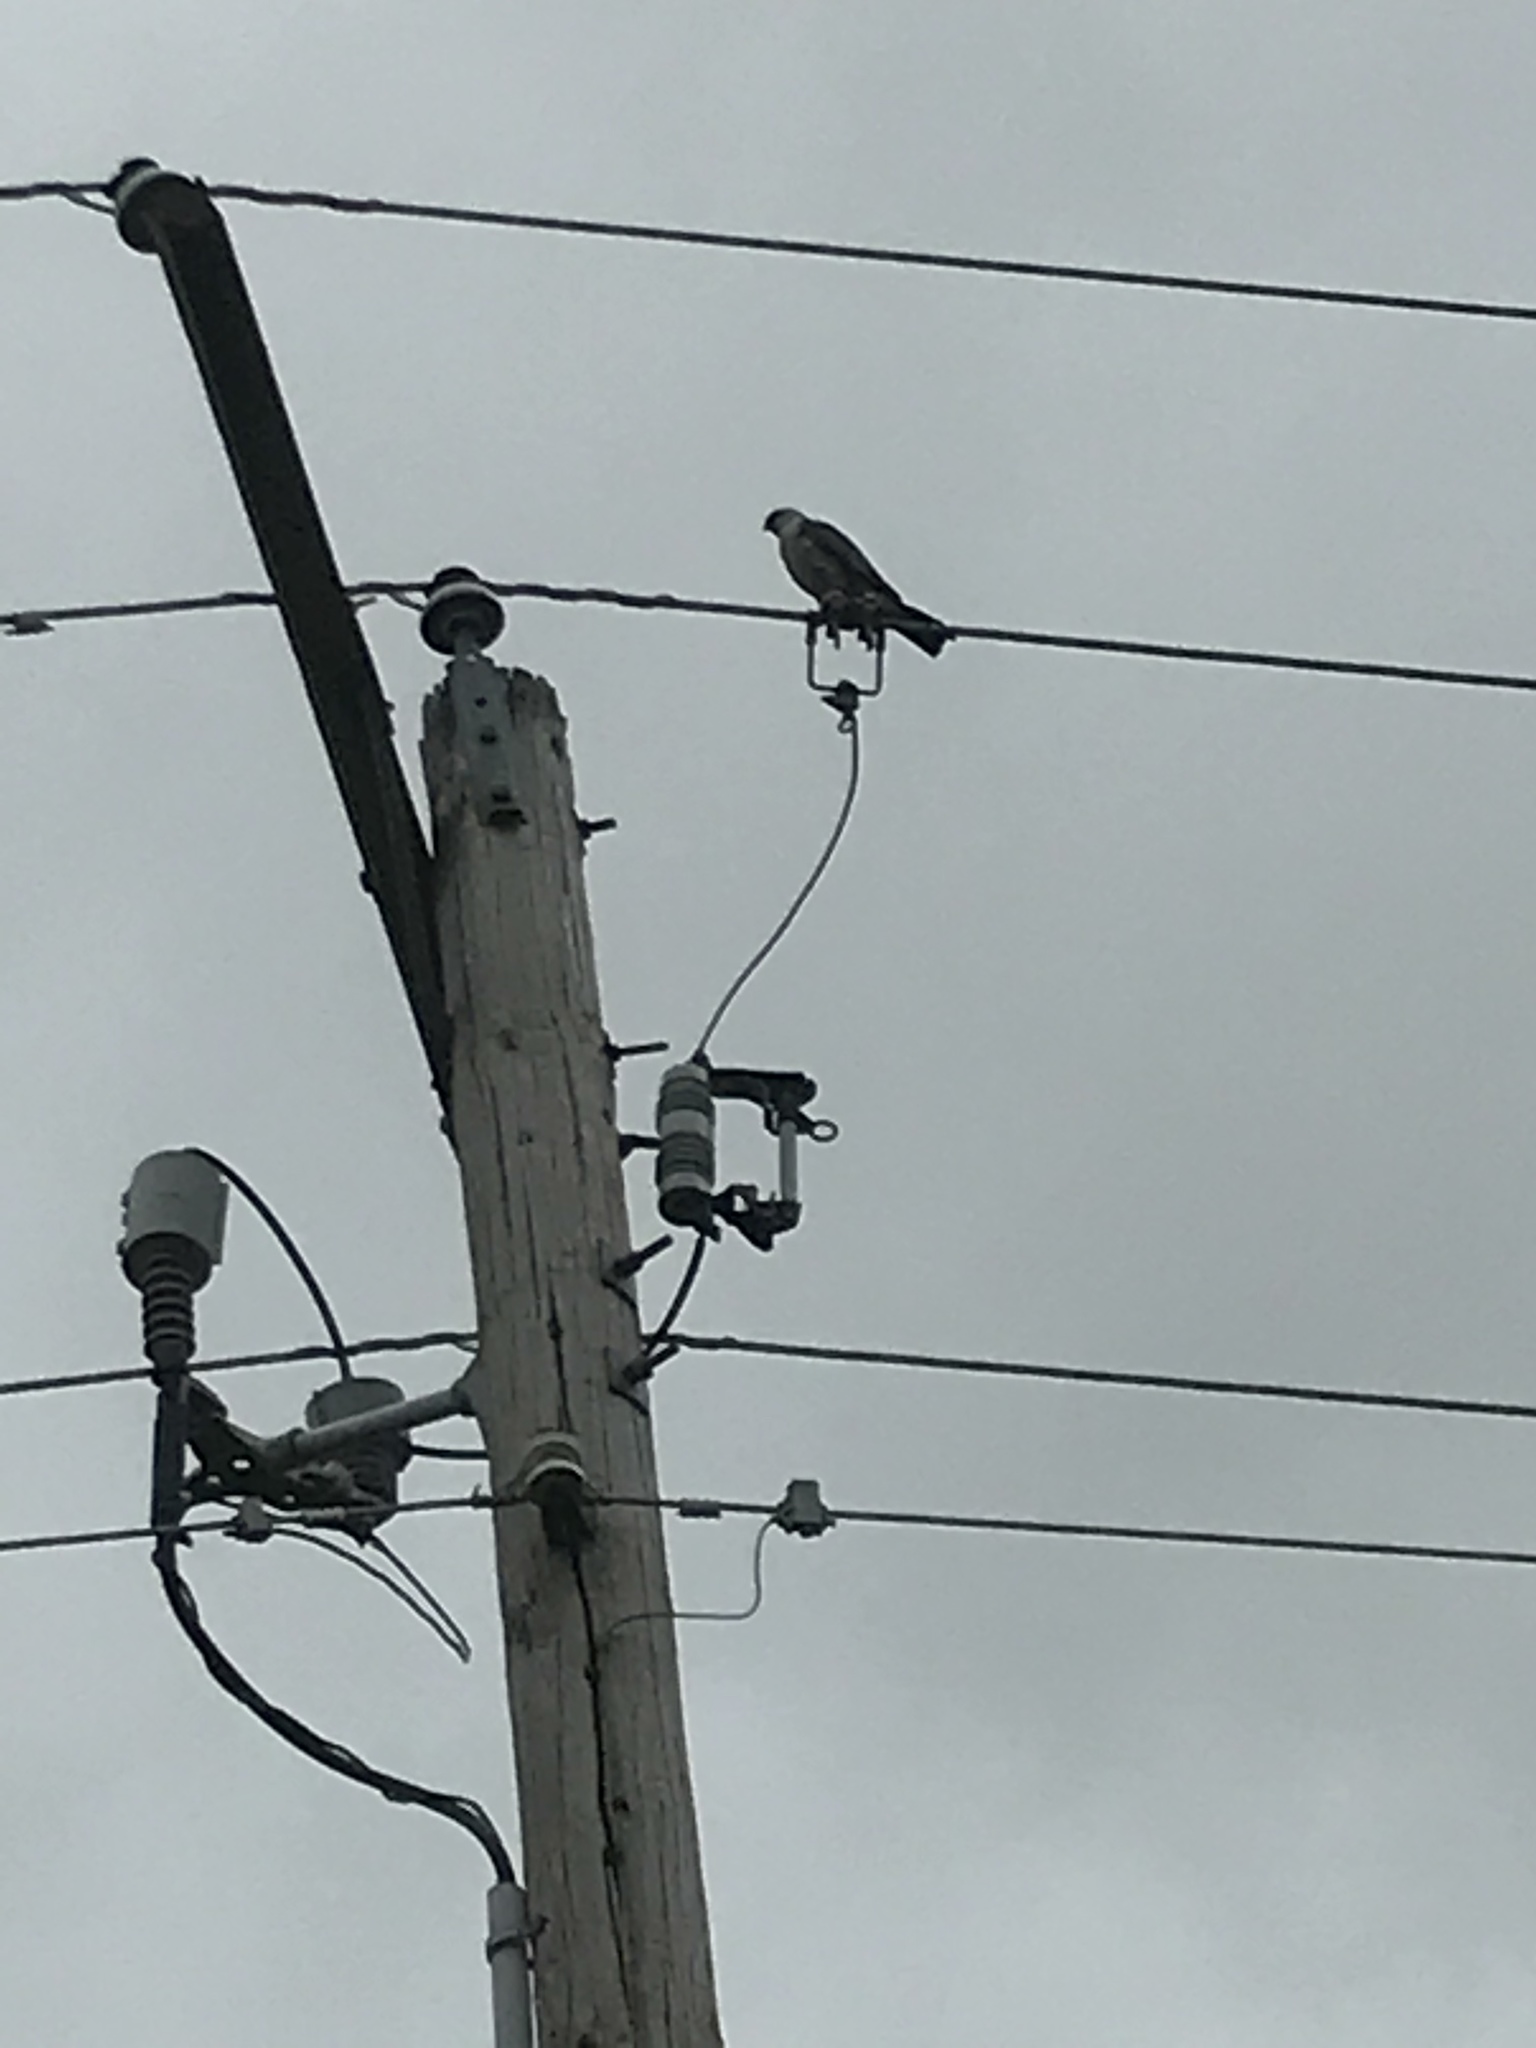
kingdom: Animalia
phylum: Chordata
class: Aves
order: Accipitriformes
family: Accipitridae
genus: Ictinia
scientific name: Ictinia mississippiensis
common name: Mississippi kite
